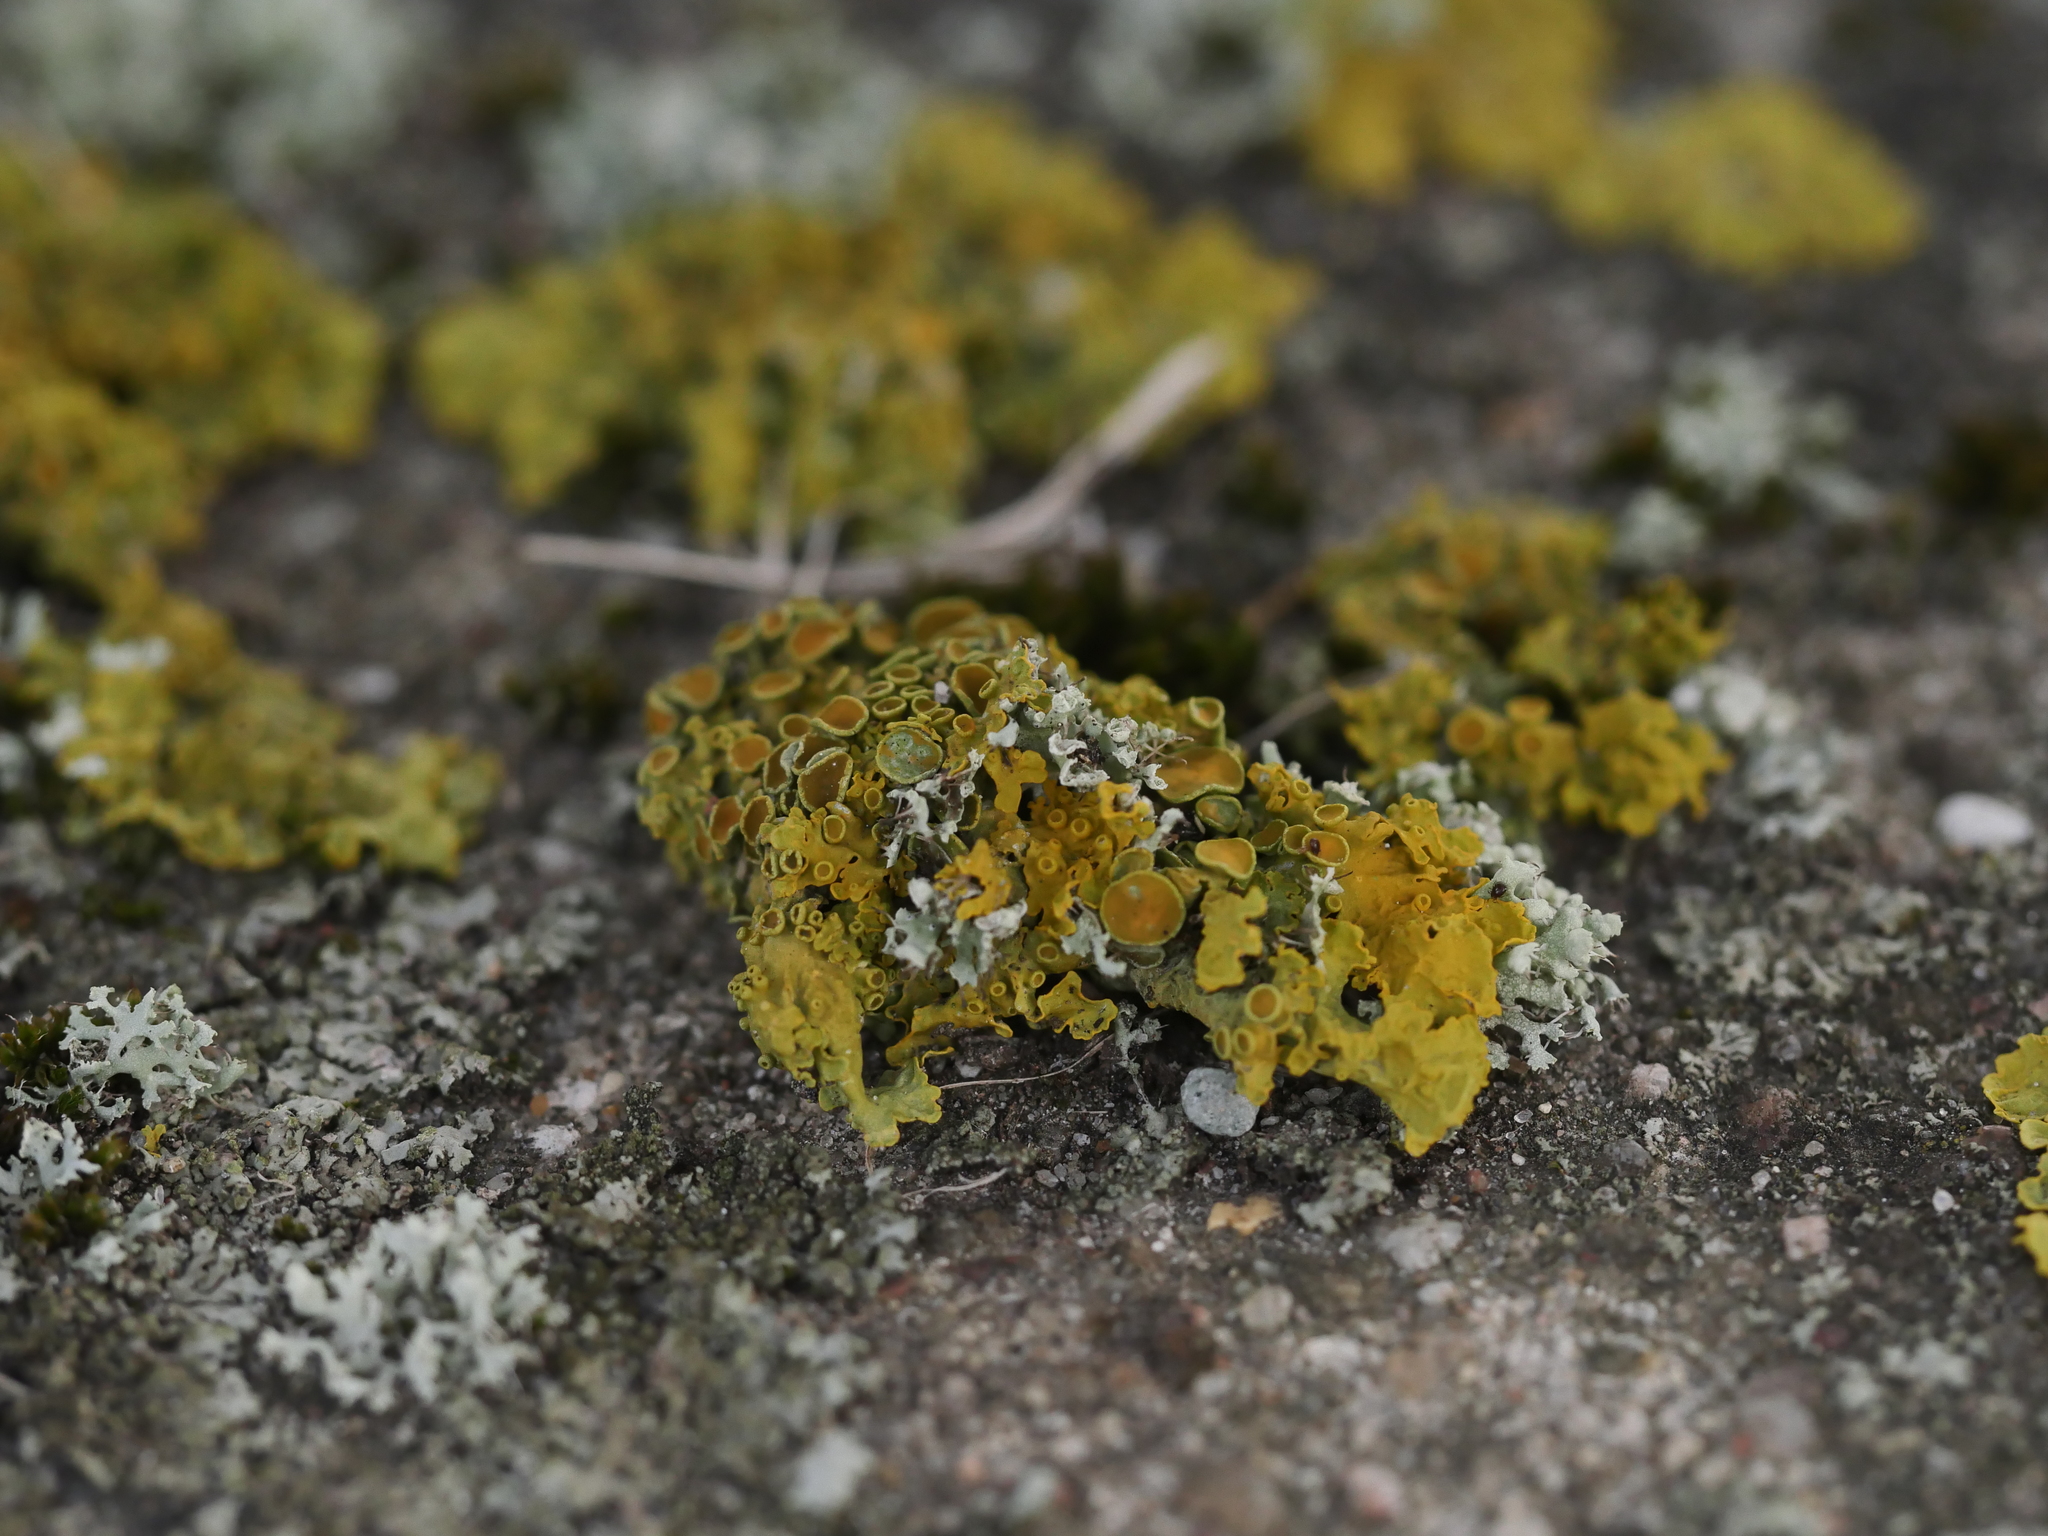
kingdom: Fungi
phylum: Ascomycota
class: Lecanoromycetes
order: Teloschistales
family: Teloschistaceae
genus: Xanthoria
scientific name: Xanthoria parietina
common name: Common orange lichen
